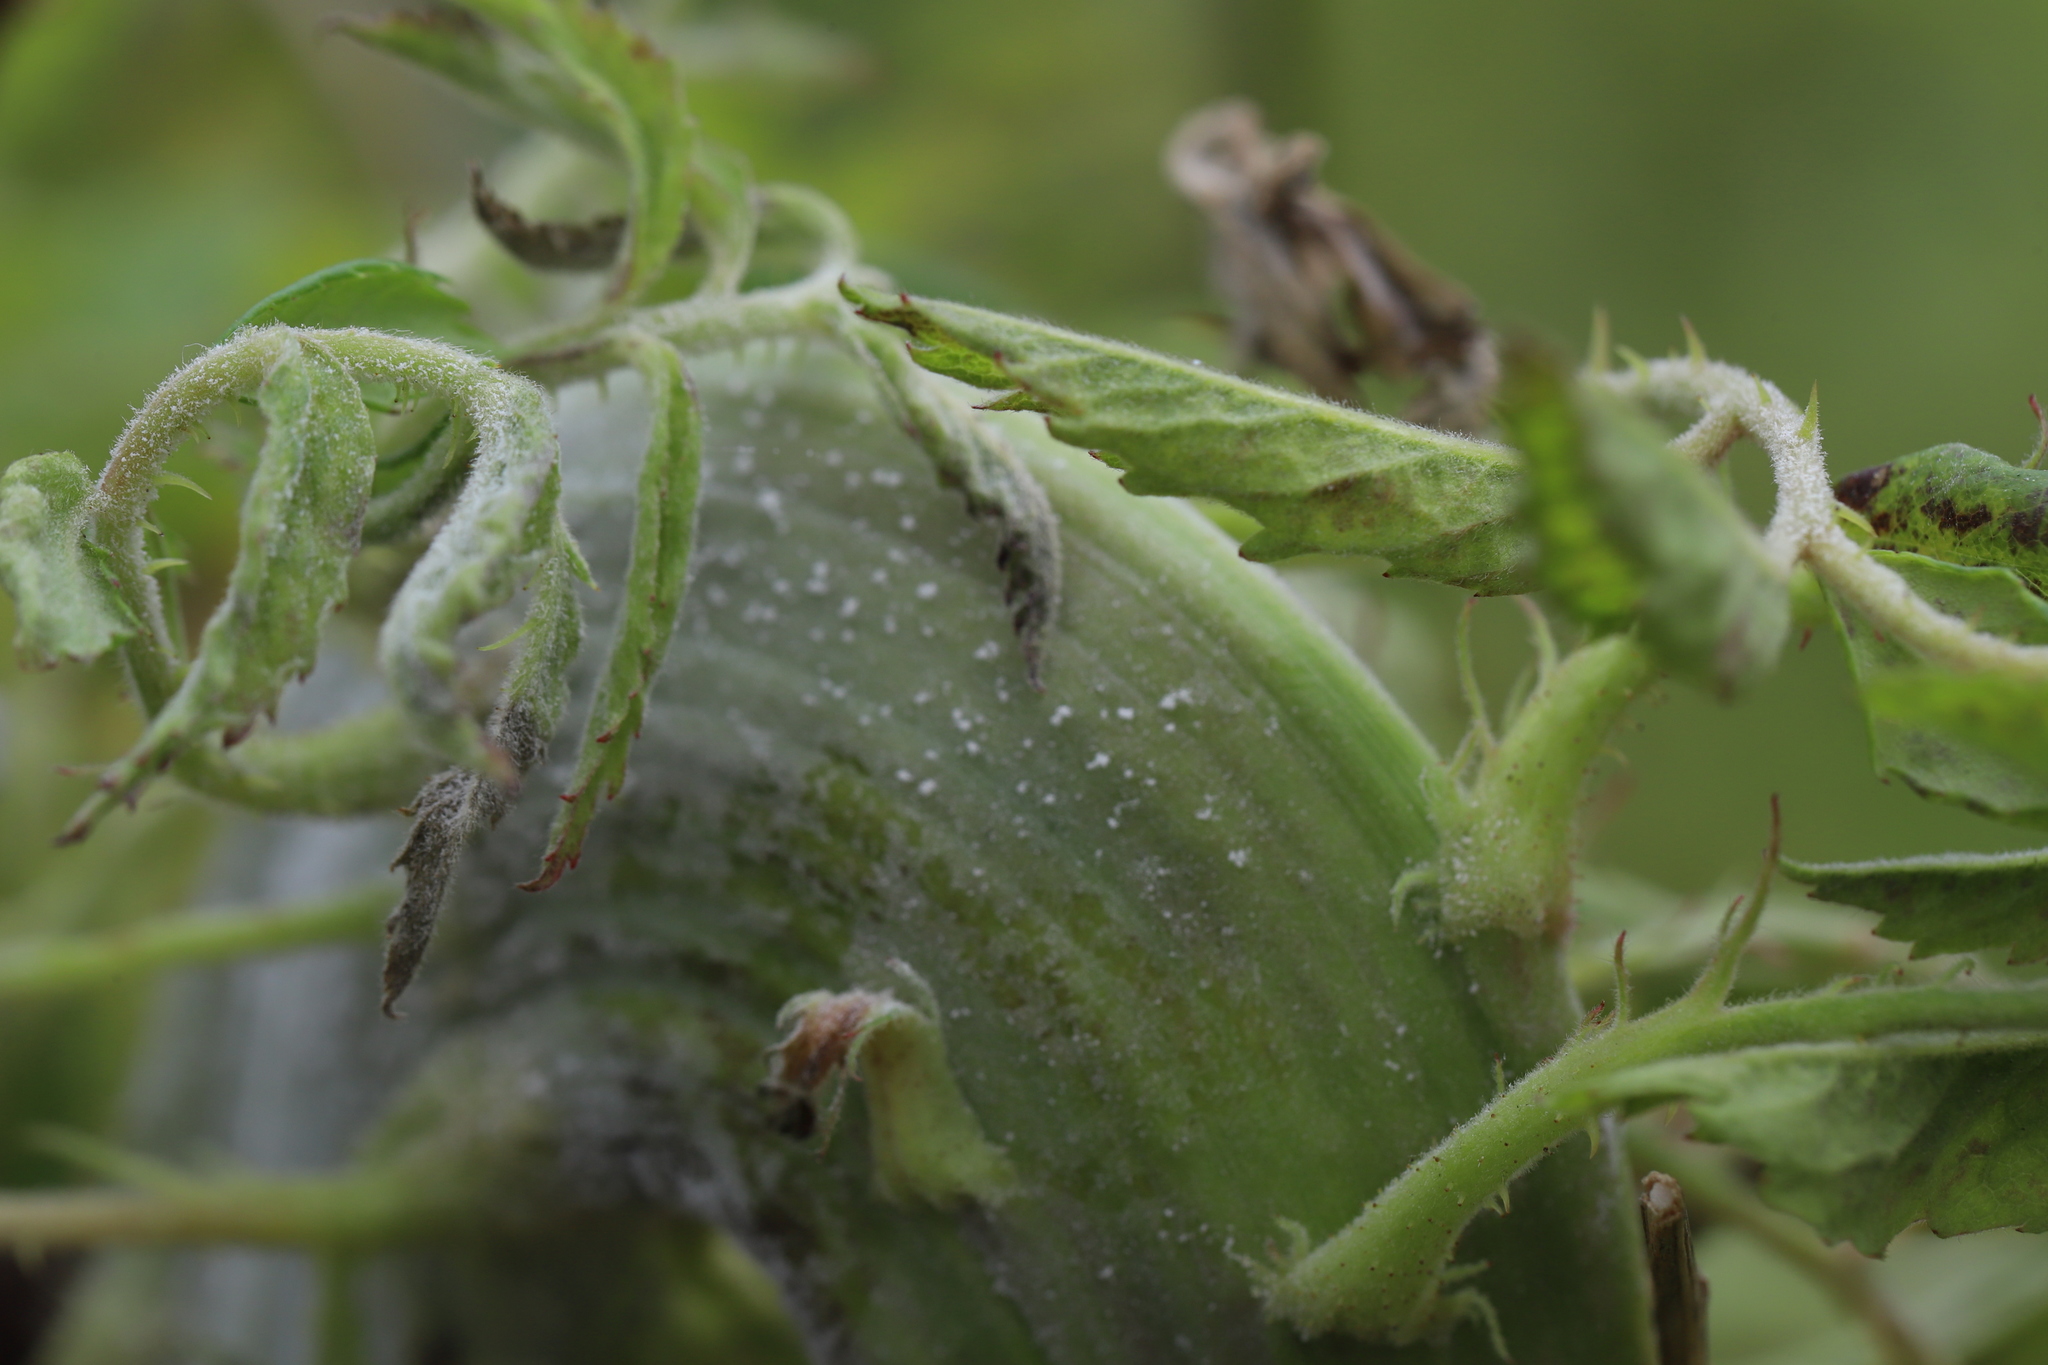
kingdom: Viruses
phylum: Negarnaviricota
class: Ellioviricetes
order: Bunyavirales
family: Fimoviridae
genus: Emaravirus
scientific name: Emaravirus rosae
